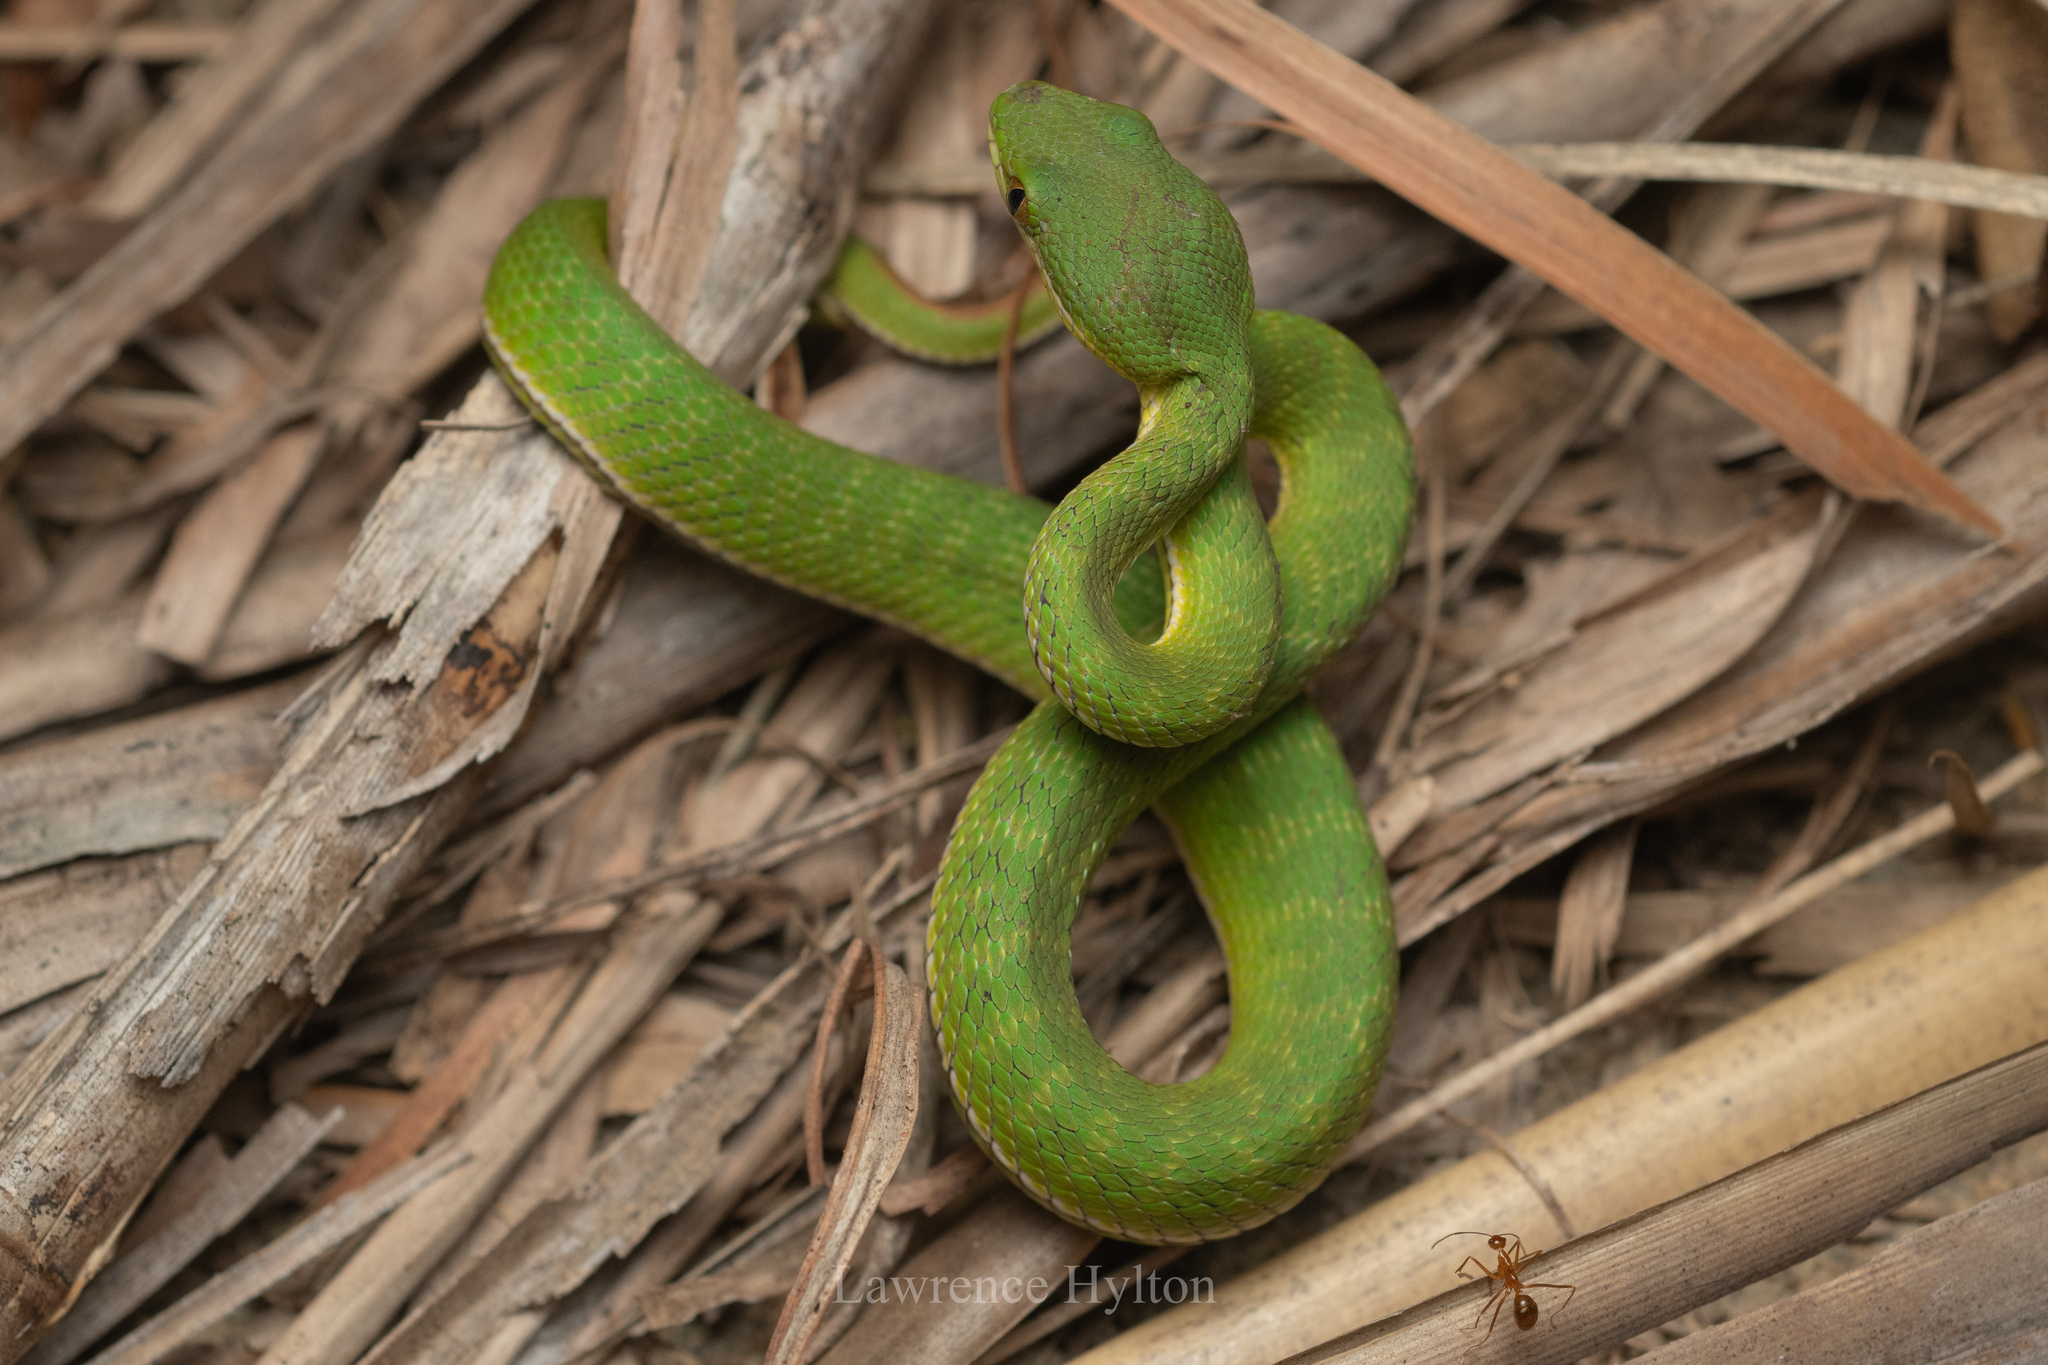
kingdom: Animalia
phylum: Chordata
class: Squamata
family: Viperidae
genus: Trimeresurus
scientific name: Trimeresurus albolabris
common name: White-lipped pitviper
